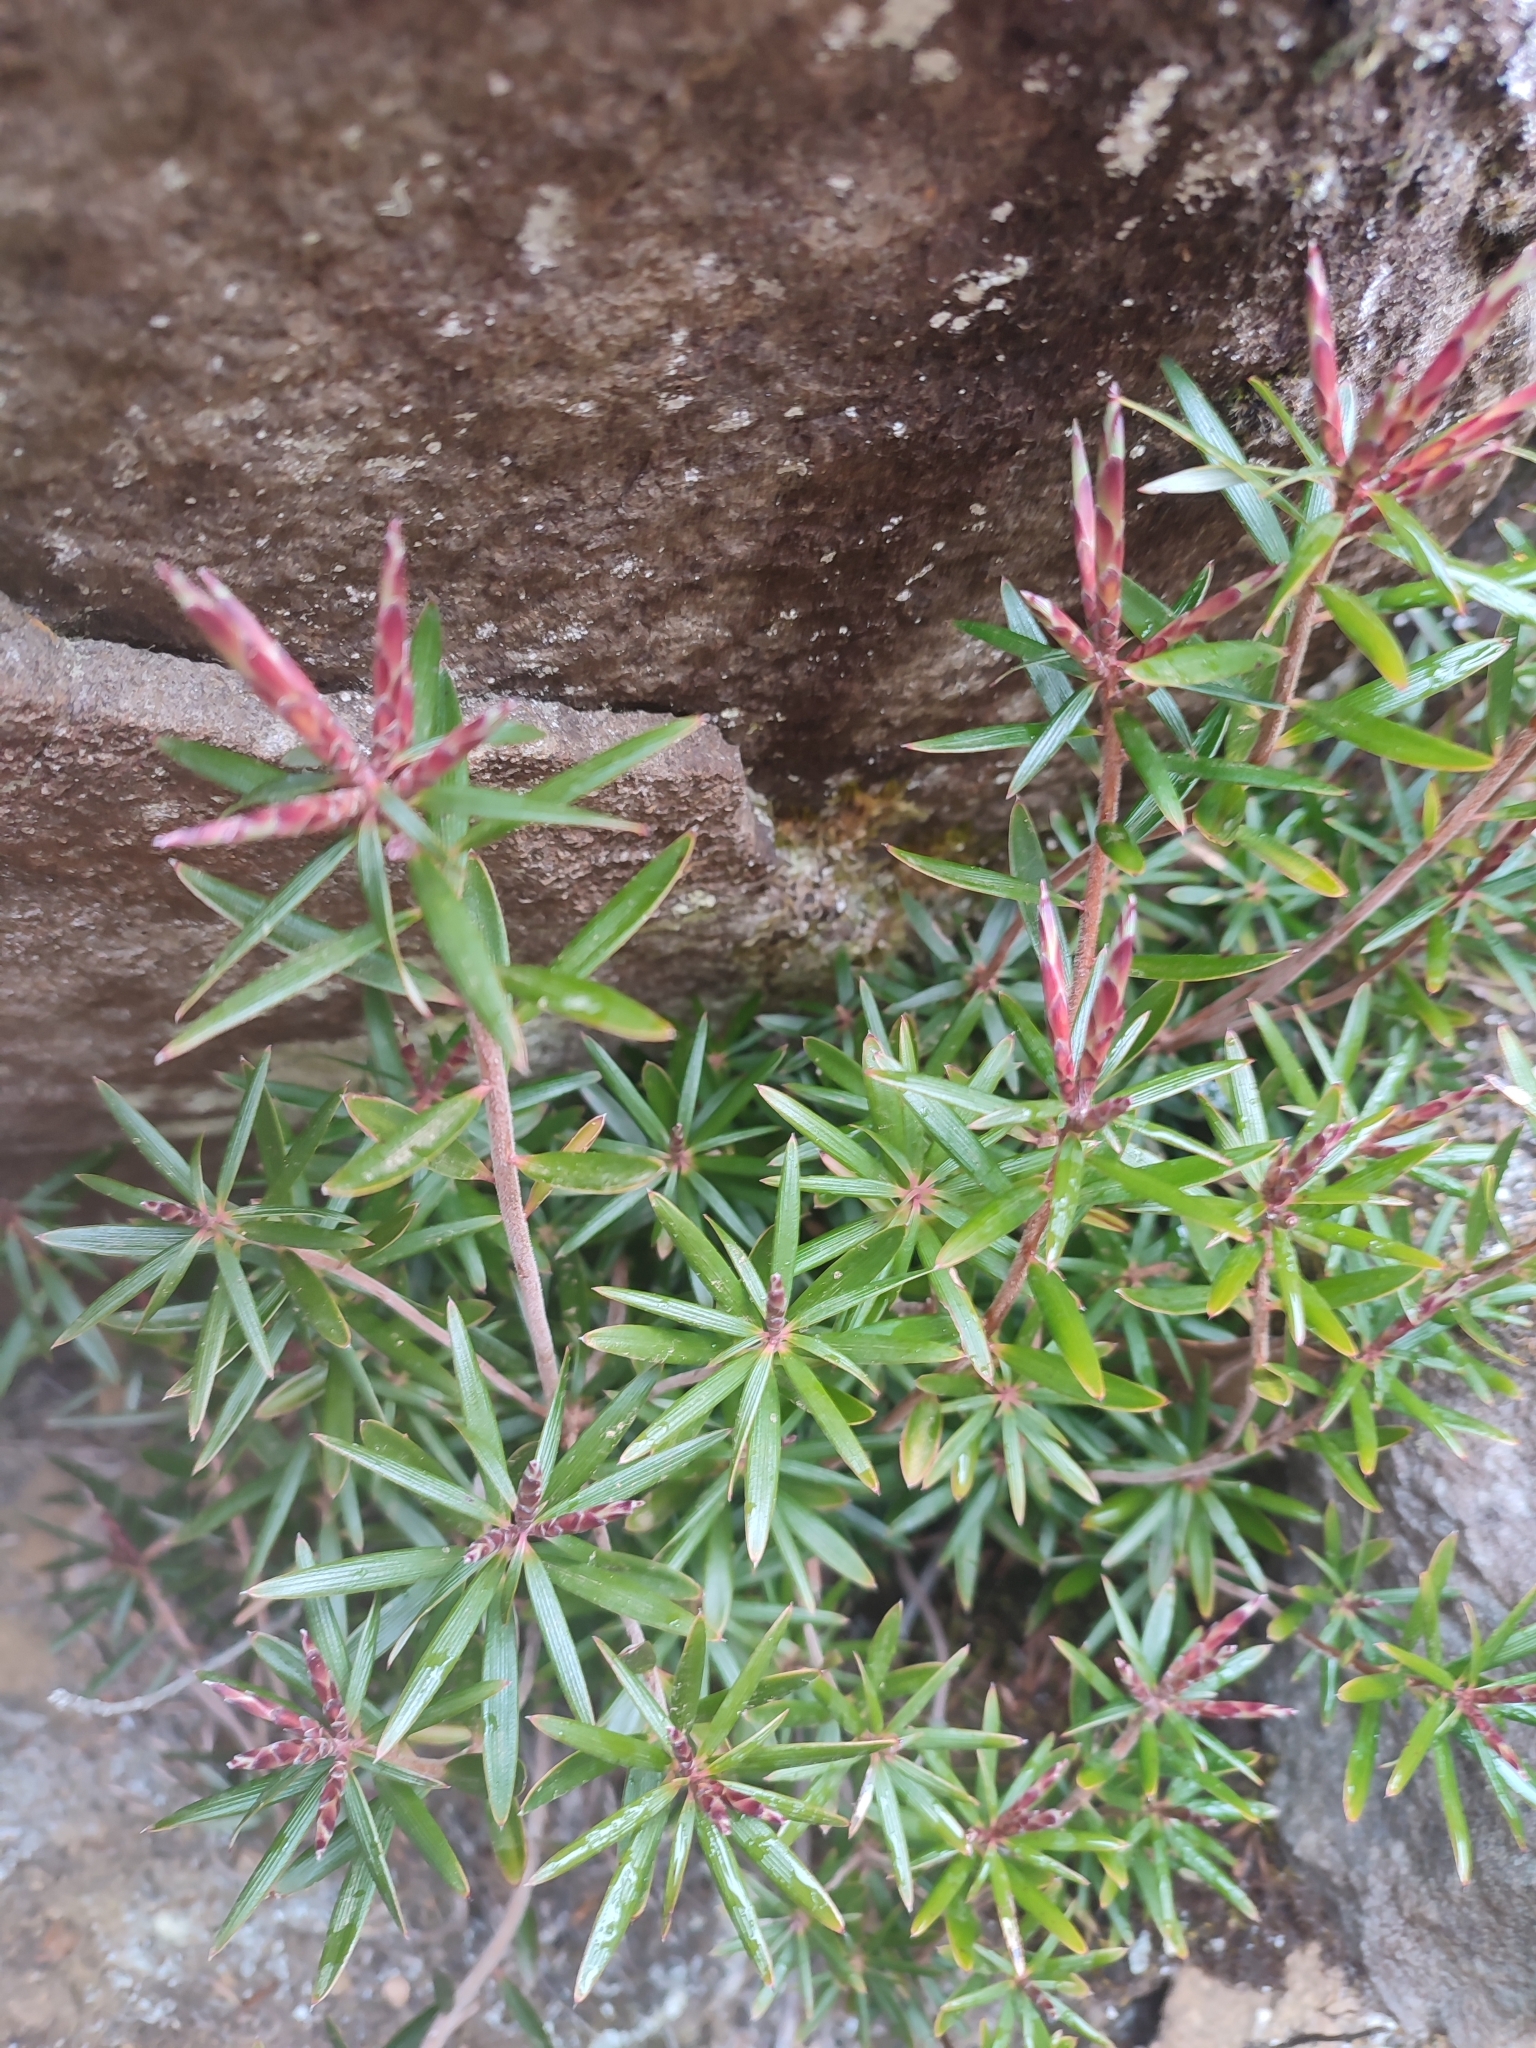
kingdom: Plantae
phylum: Tracheophyta
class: Magnoliopsida
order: Ericales
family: Ericaceae
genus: Cyathodes
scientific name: Cyathodes glauca
